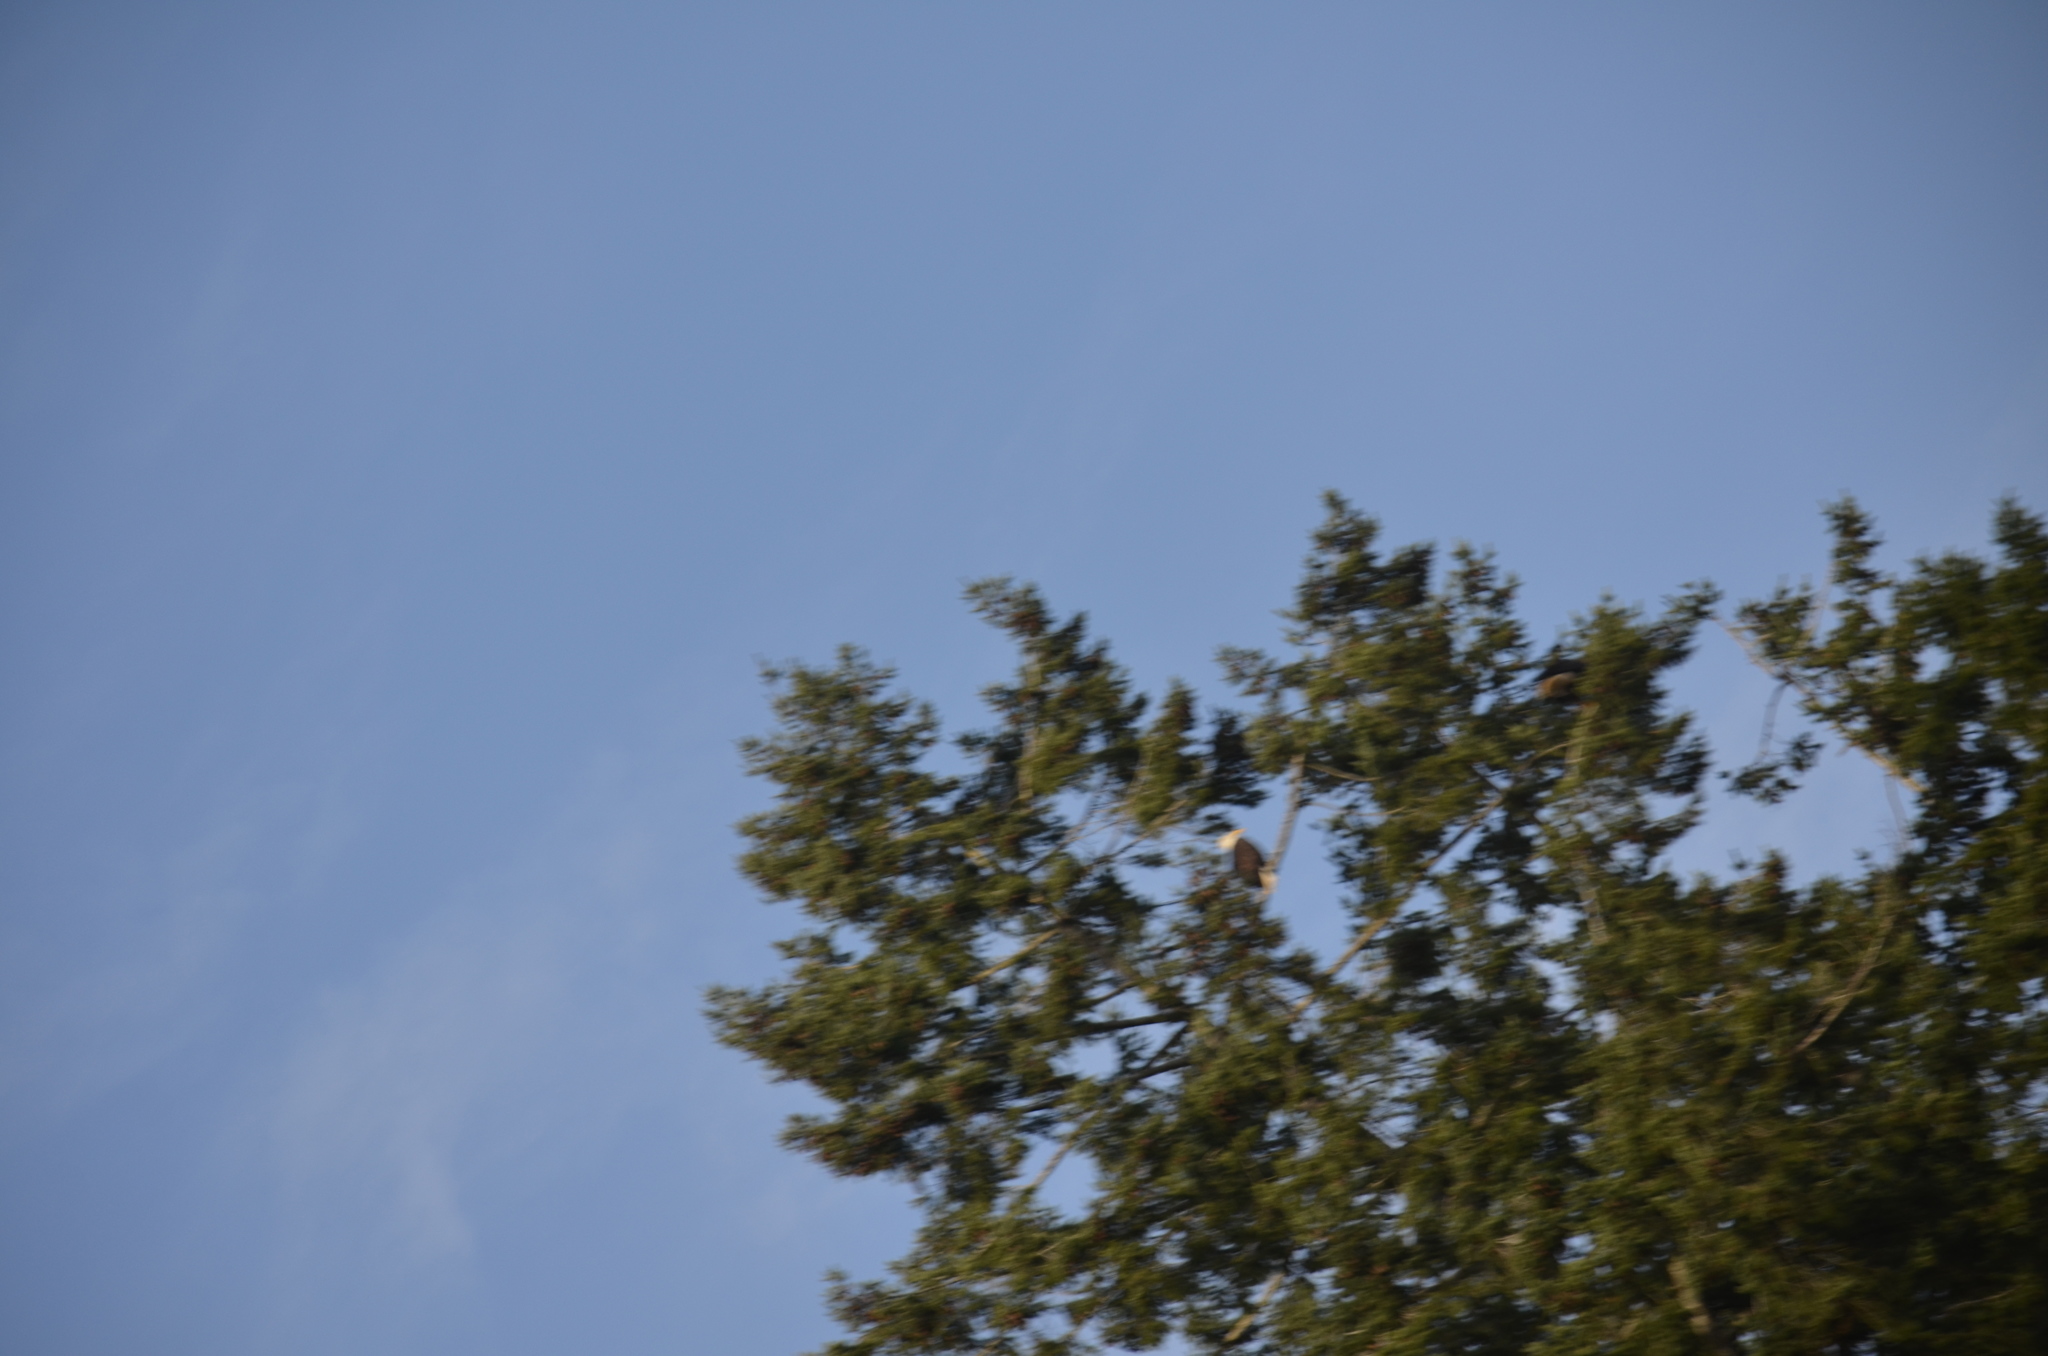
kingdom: Animalia
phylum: Chordata
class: Aves
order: Accipitriformes
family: Accipitridae
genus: Haliaeetus
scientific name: Haliaeetus leucocephalus
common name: Bald eagle
